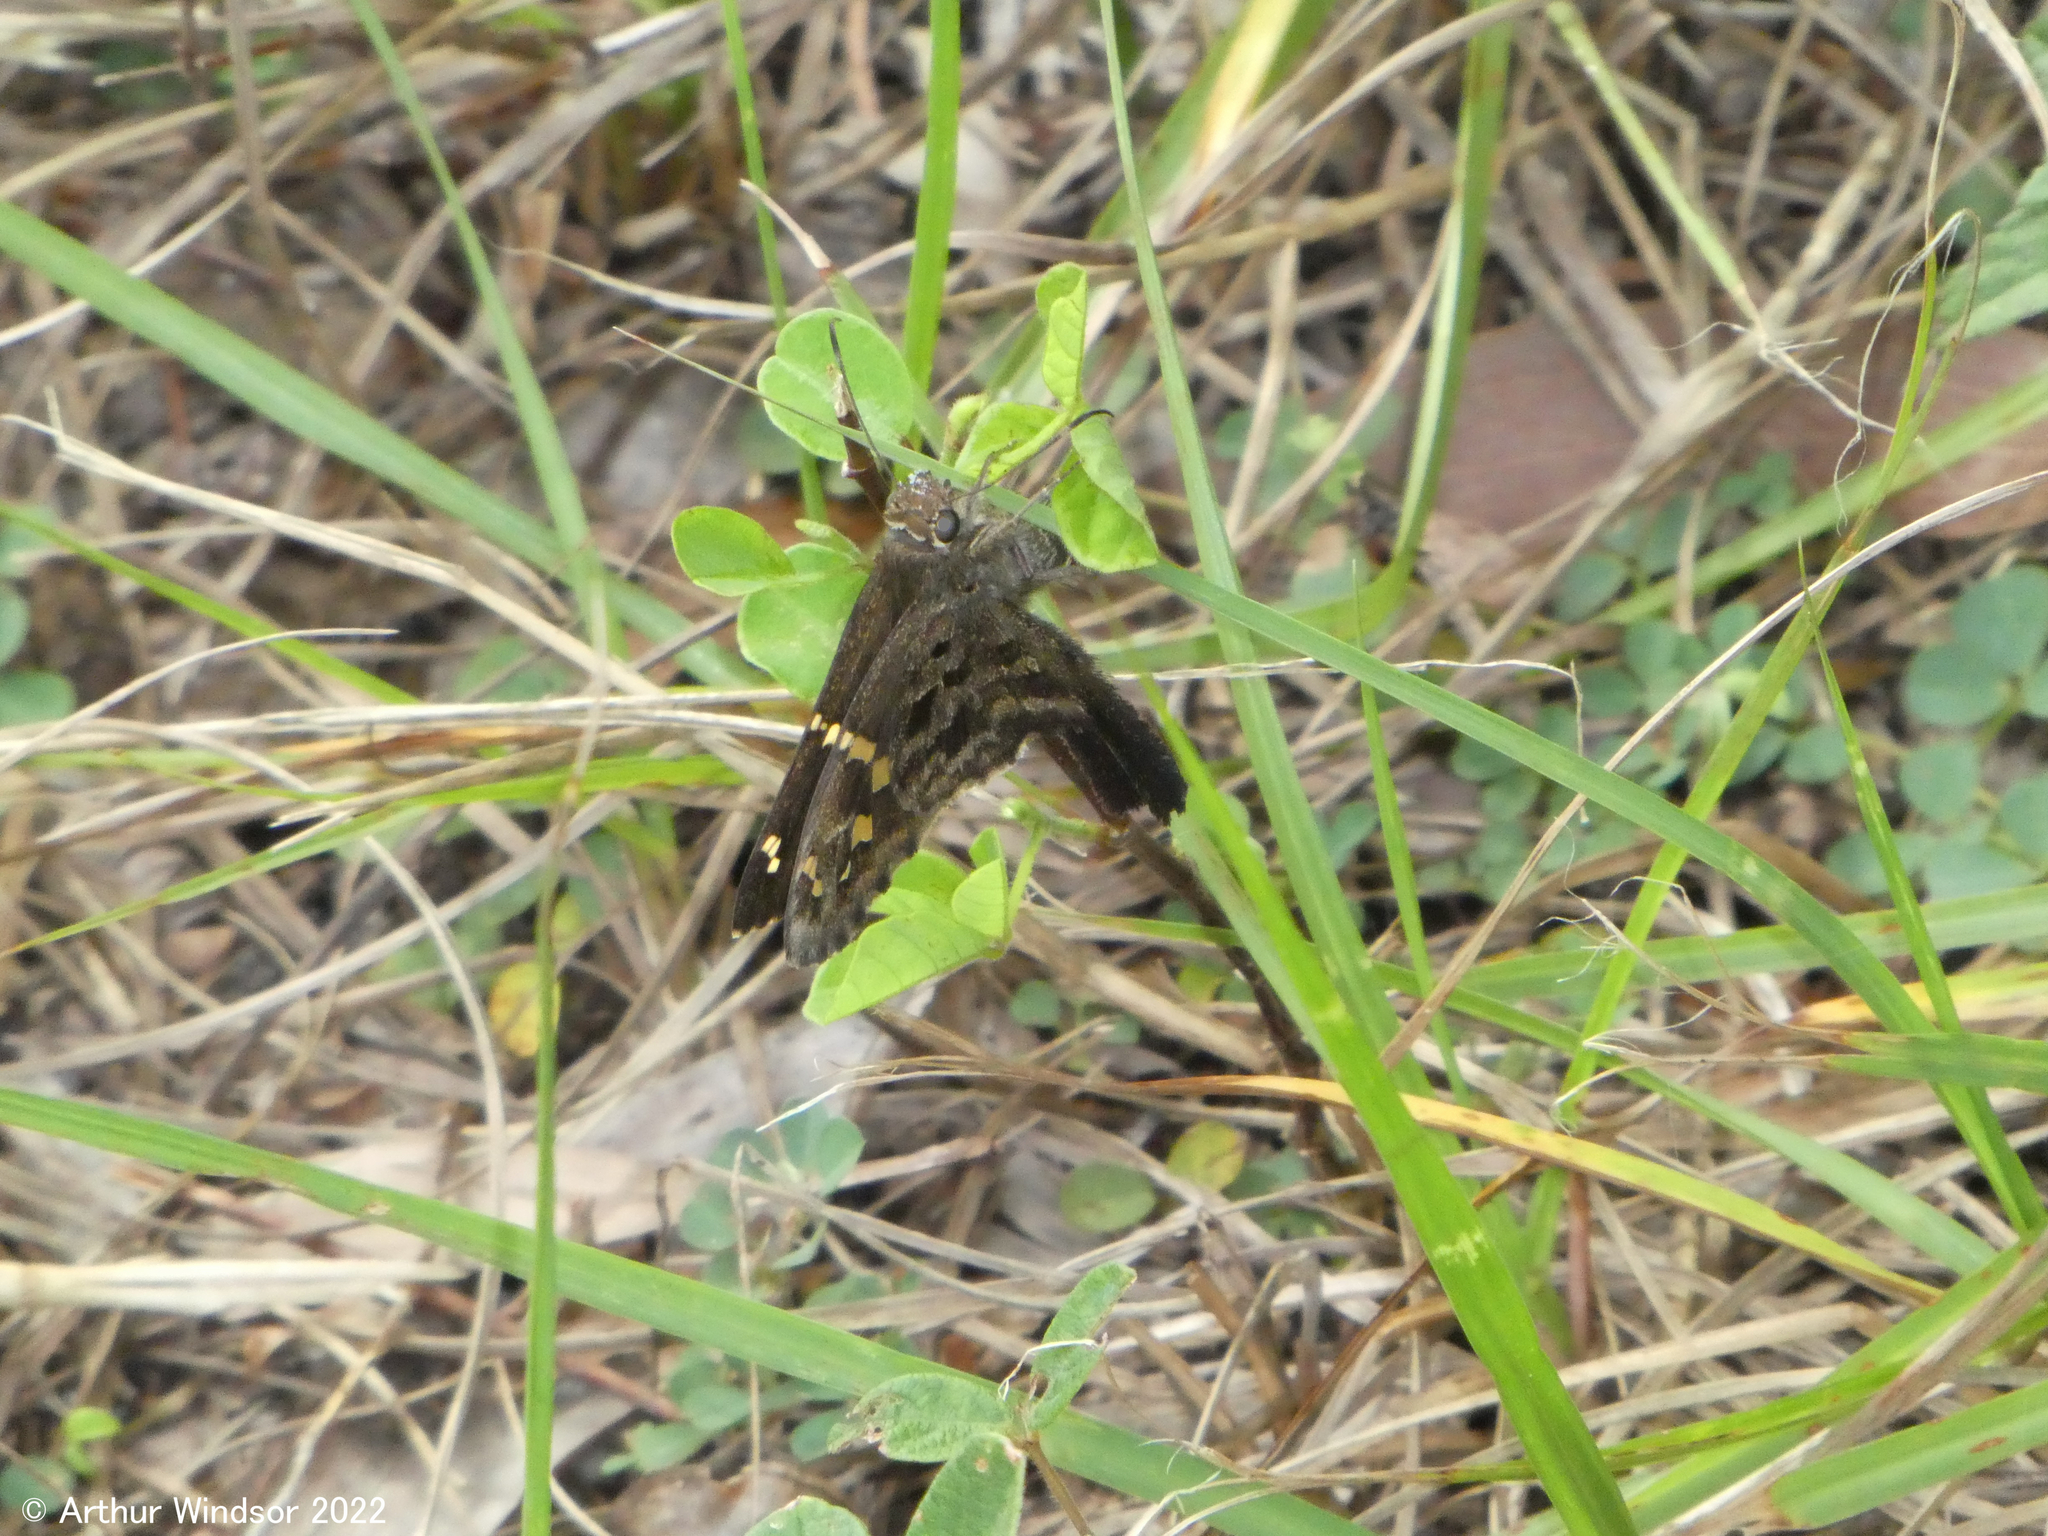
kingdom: Animalia
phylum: Arthropoda
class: Insecta
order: Lepidoptera
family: Hesperiidae
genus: Thorybes
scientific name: Thorybes
